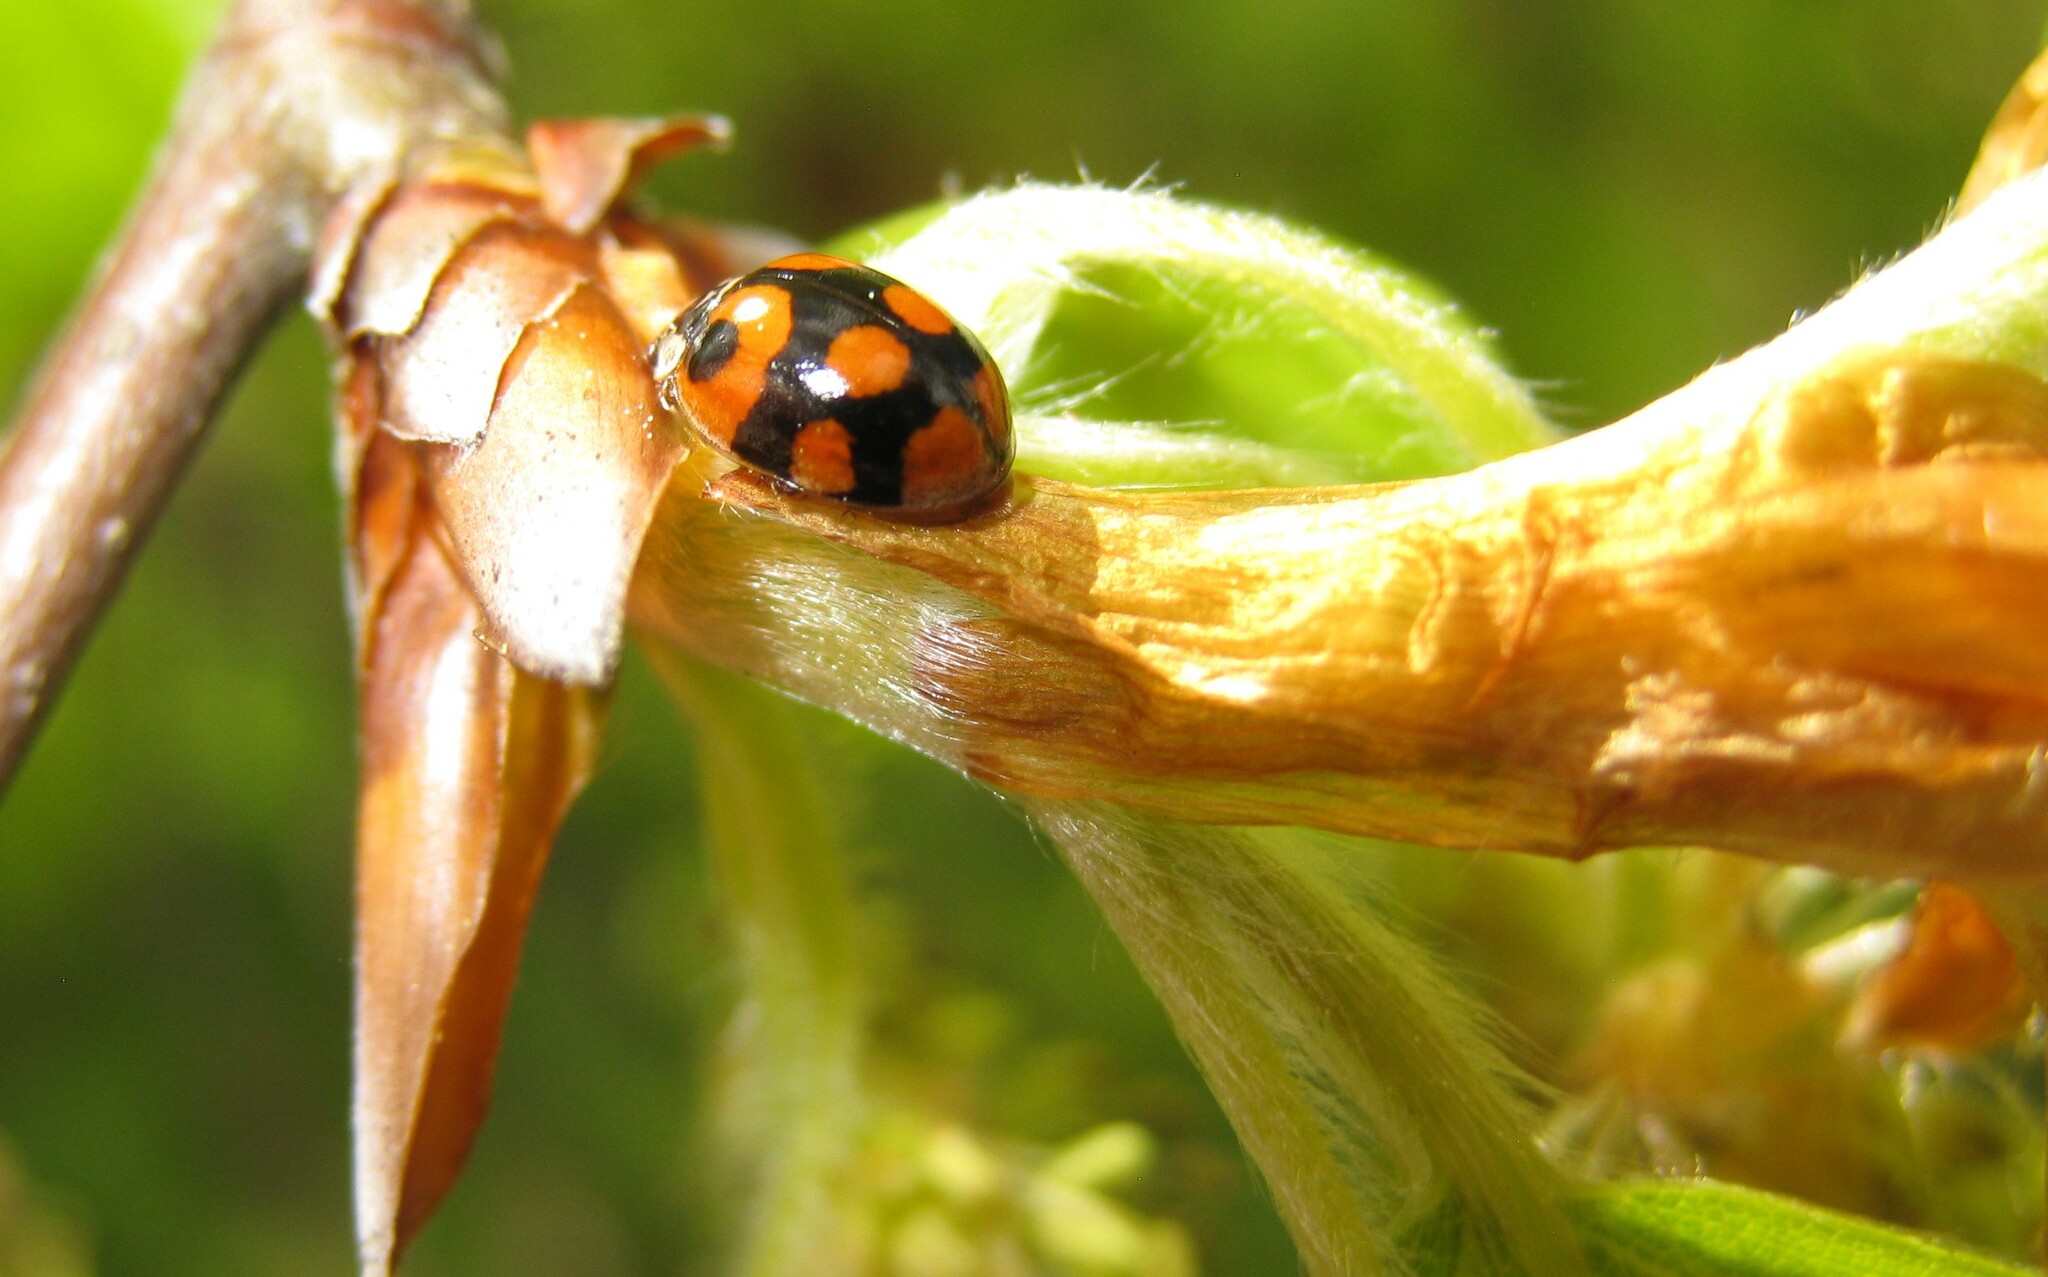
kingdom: Animalia
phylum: Arthropoda
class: Insecta
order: Coleoptera
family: Coccinellidae
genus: Adalia
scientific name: Adalia decempunctata
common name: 10-spot ladybird
